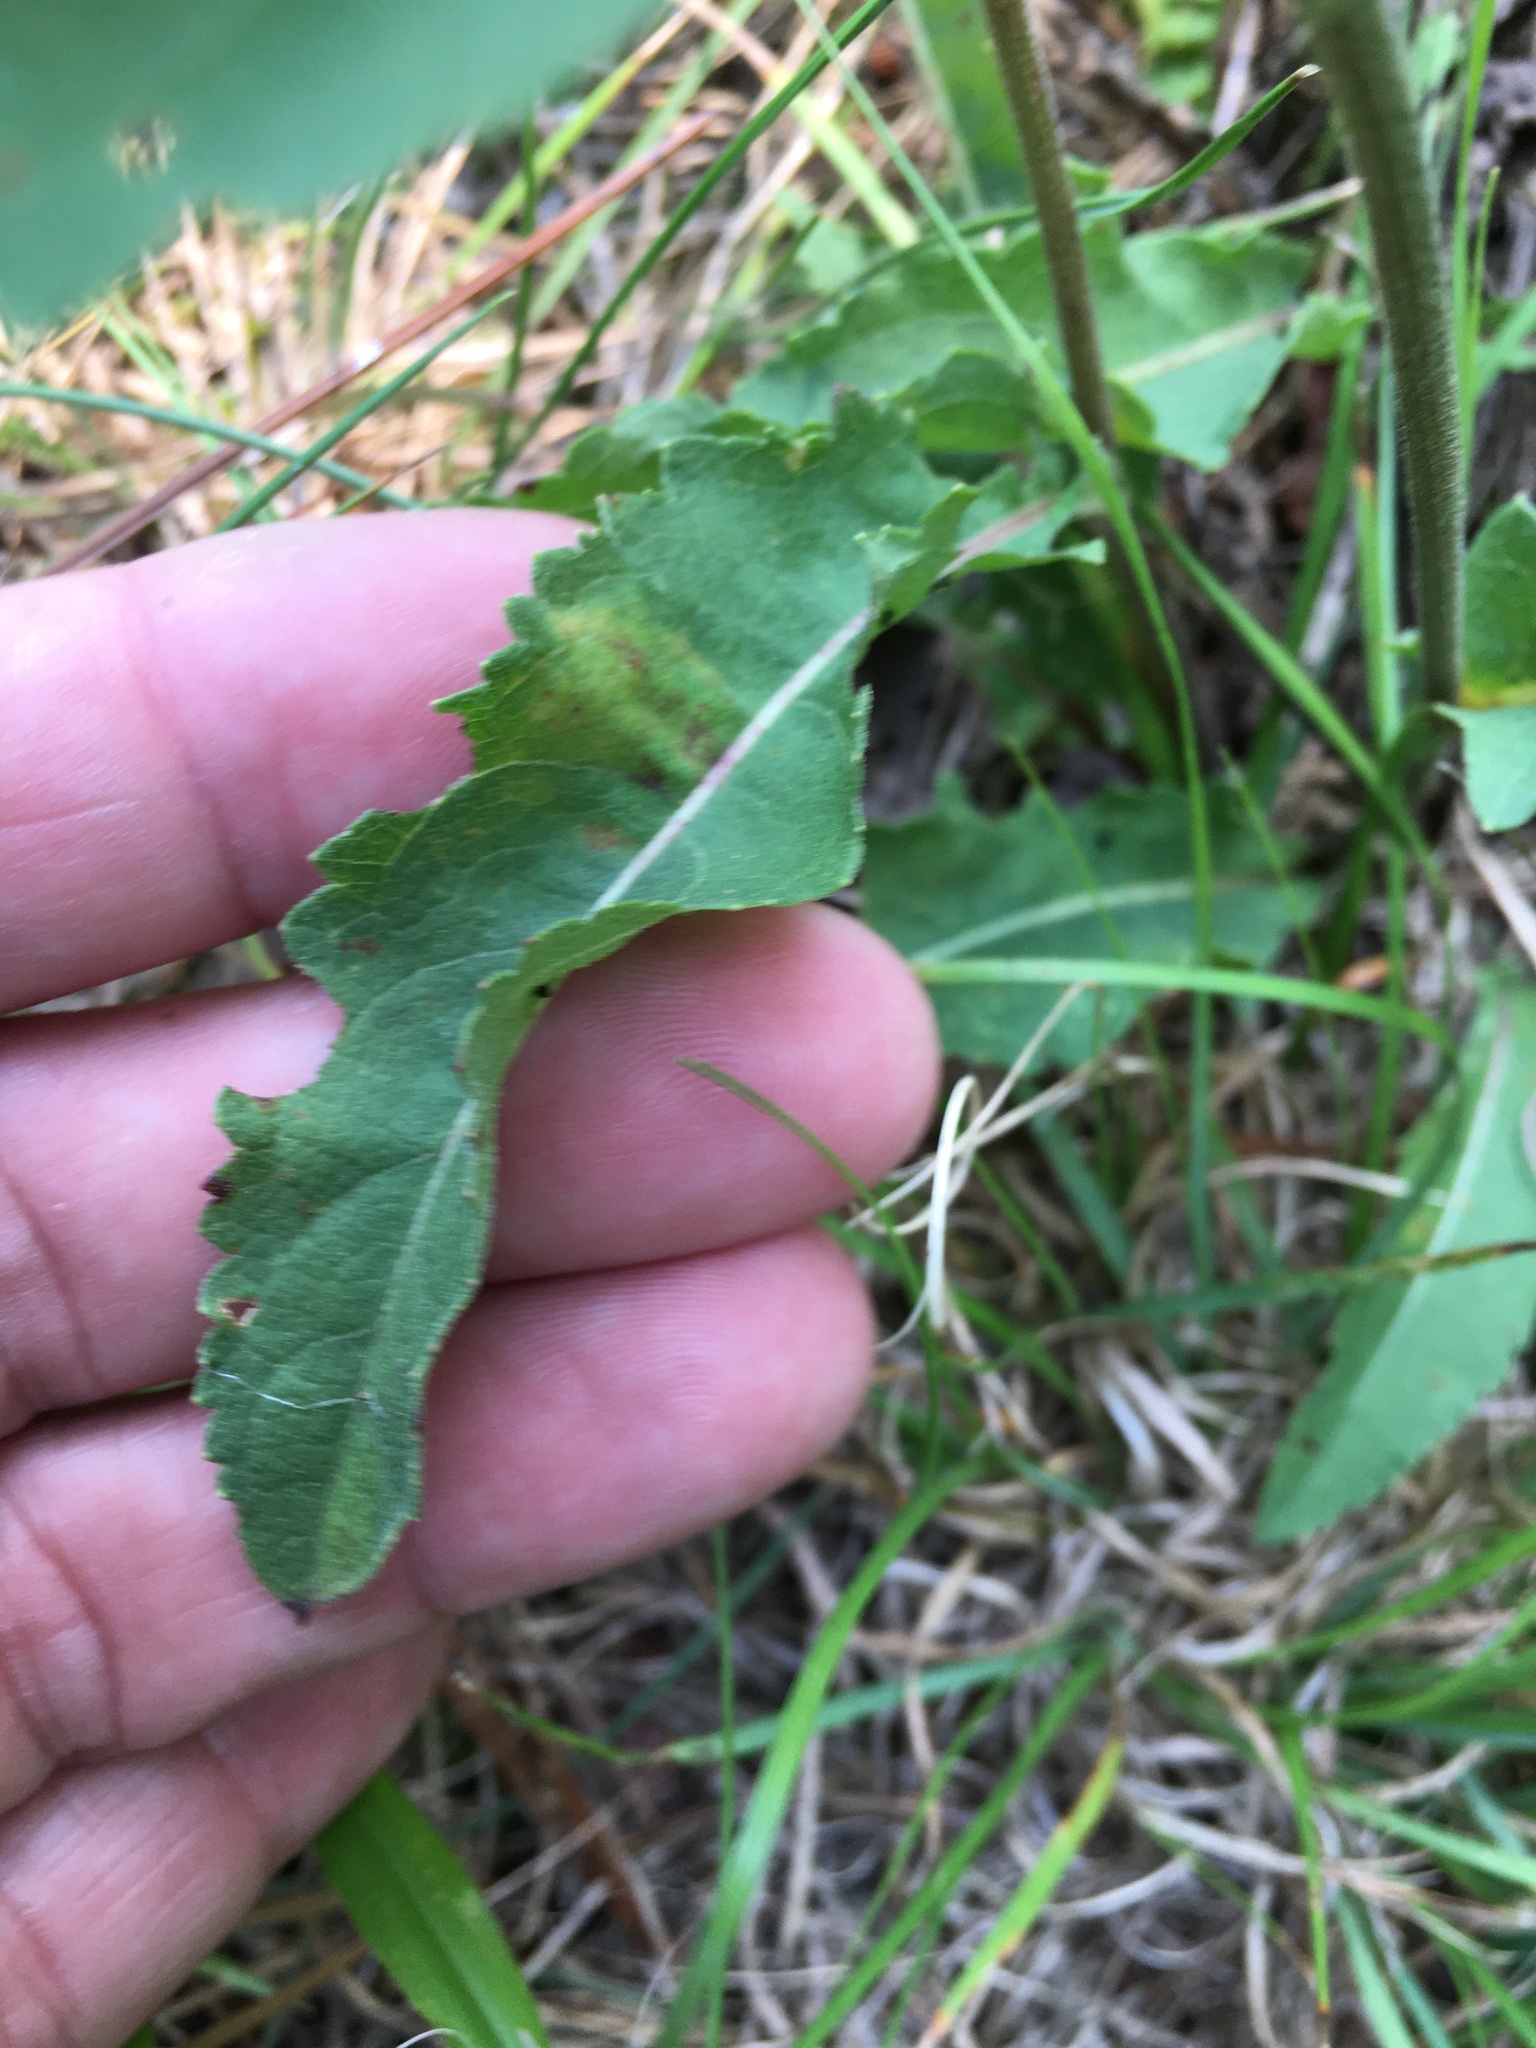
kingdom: Plantae
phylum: Tracheophyta
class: Magnoliopsida
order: Asterales
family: Asteraceae
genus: Parthenium
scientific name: Parthenium integrifolium
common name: American feverfew
